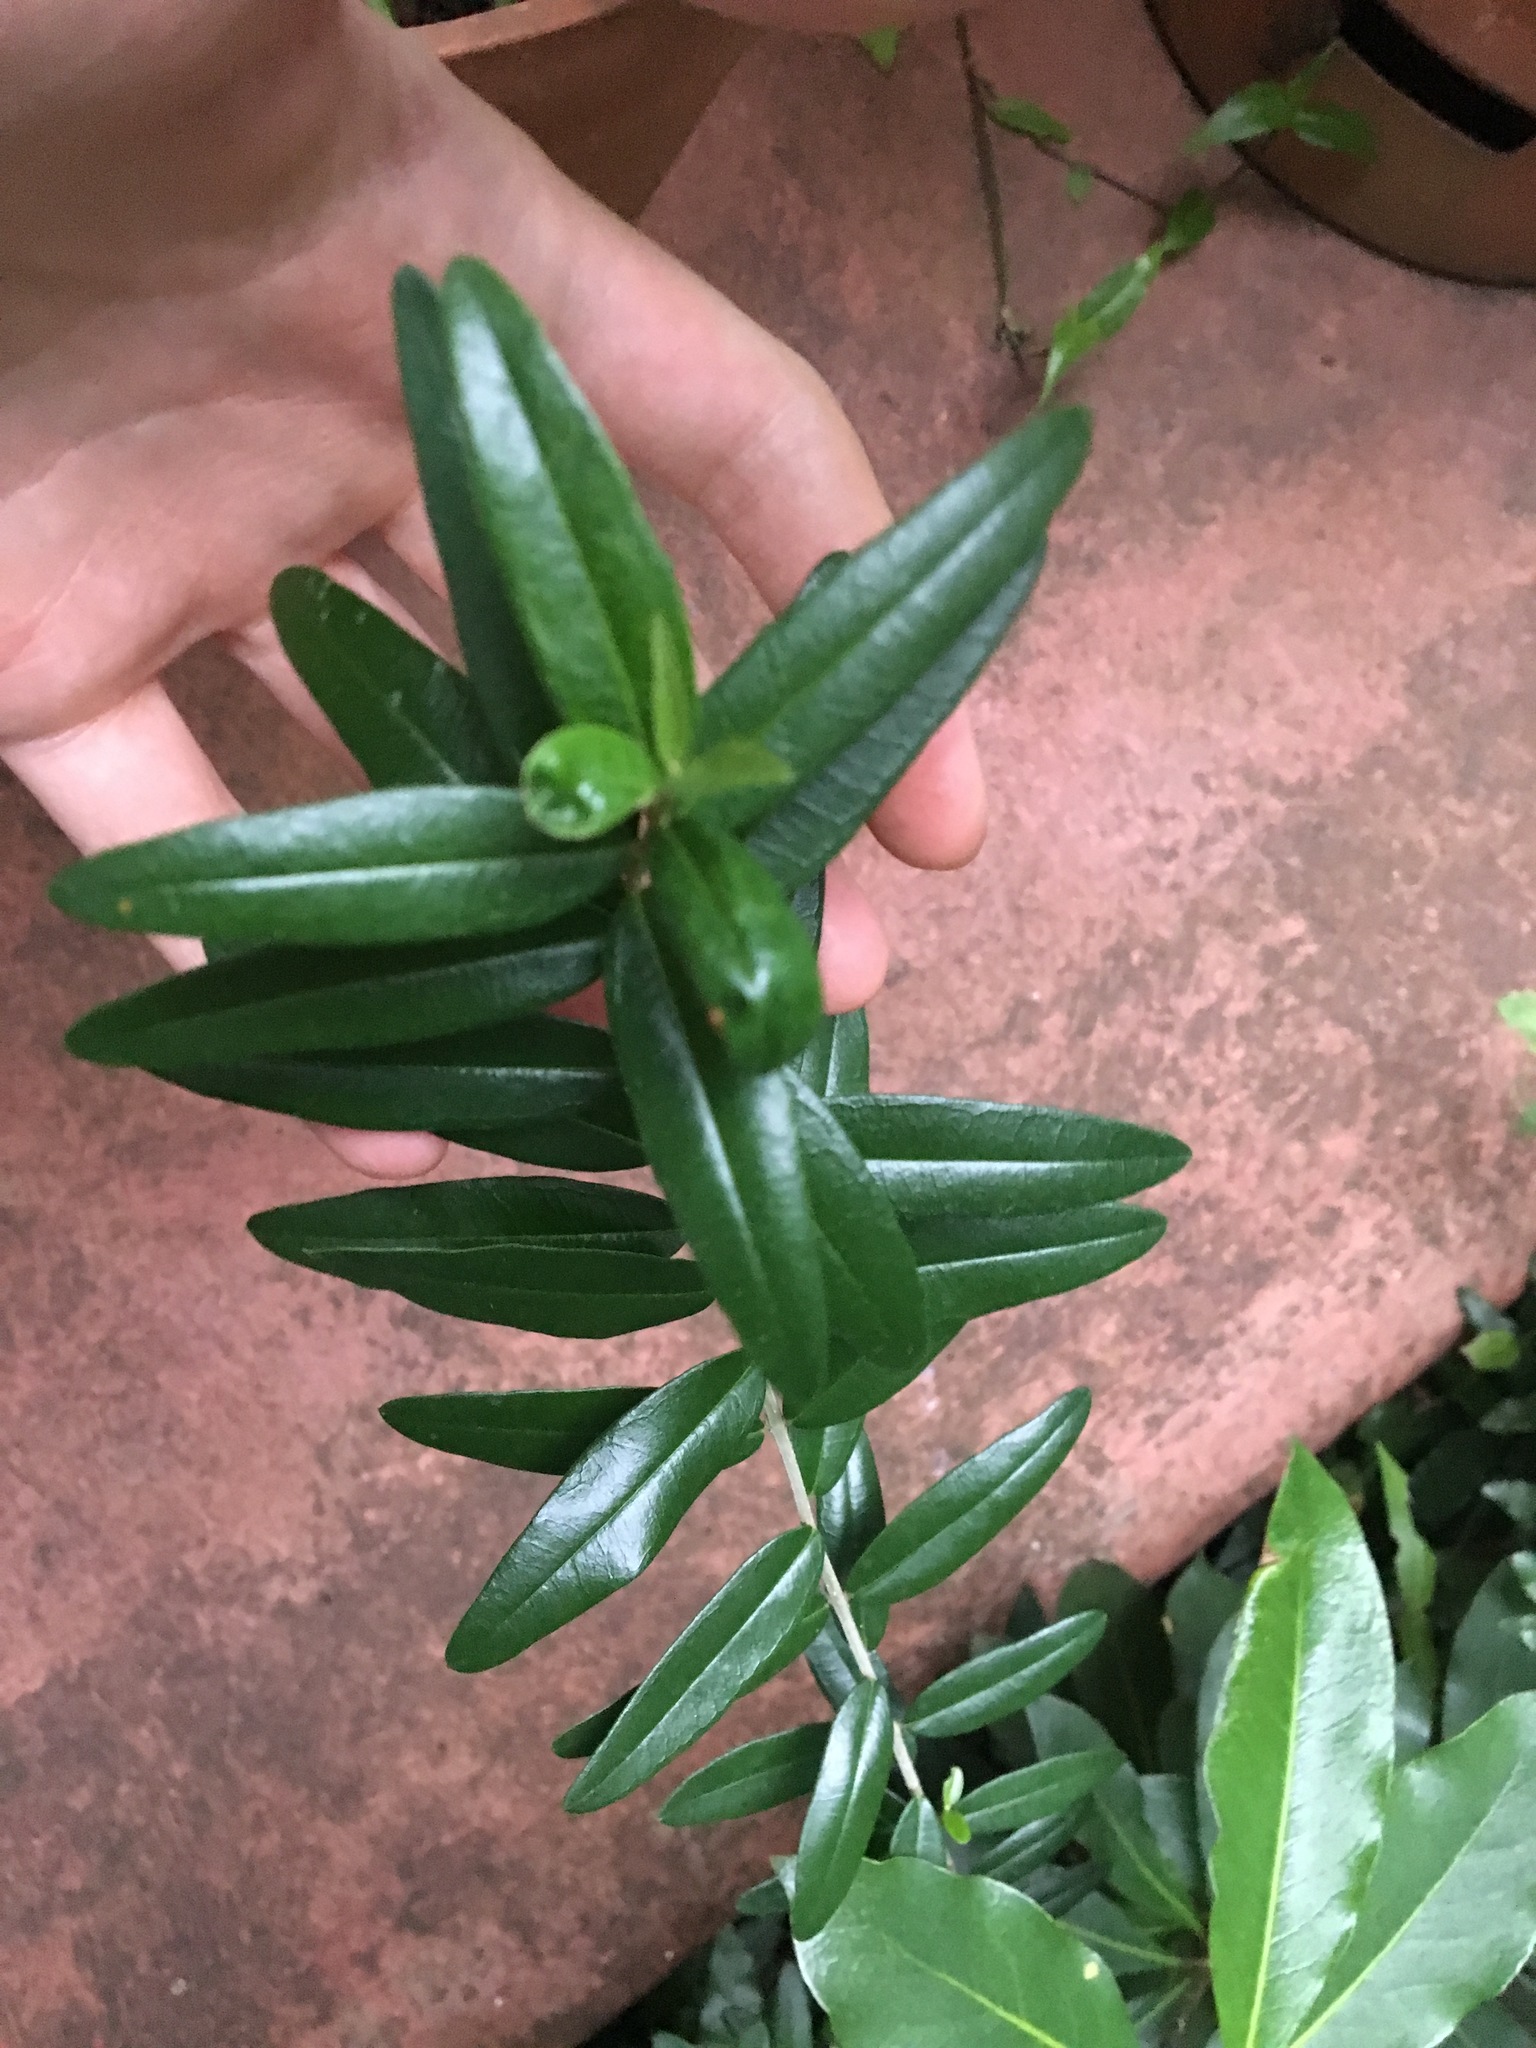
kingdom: Plantae
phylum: Tracheophyta
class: Magnoliopsida
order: Lamiales
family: Oleaceae
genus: Olea
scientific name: Olea europaea
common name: Olive
